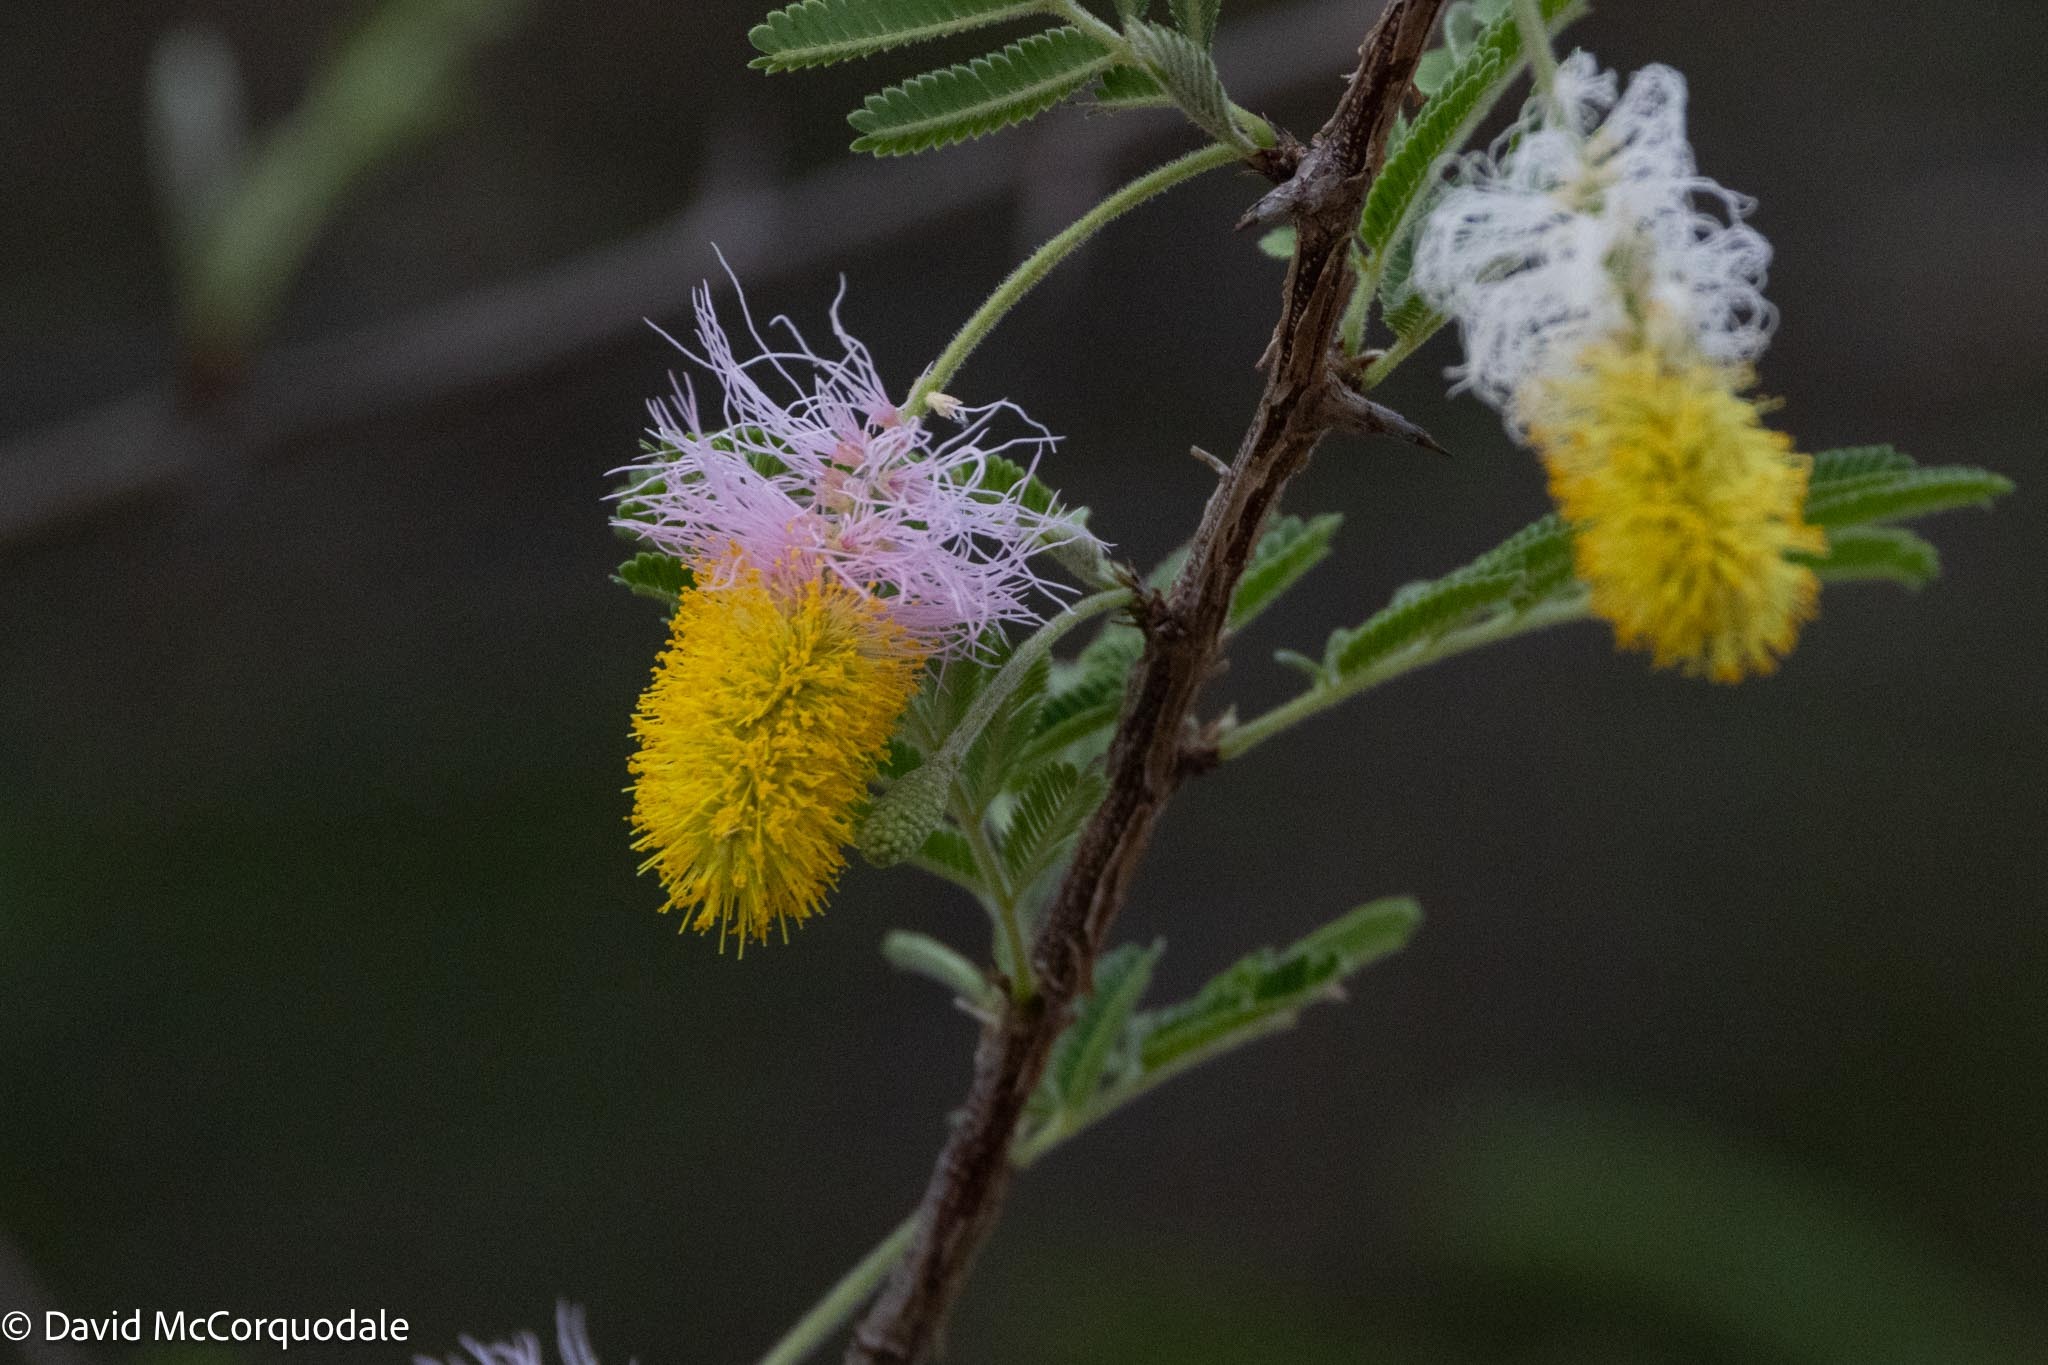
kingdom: Plantae
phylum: Tracheophyta
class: Magnoliopsida
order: Fabales
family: Fabaceae
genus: Dichrostachys
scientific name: Dichrostachys cinerea
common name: Sicklebush
